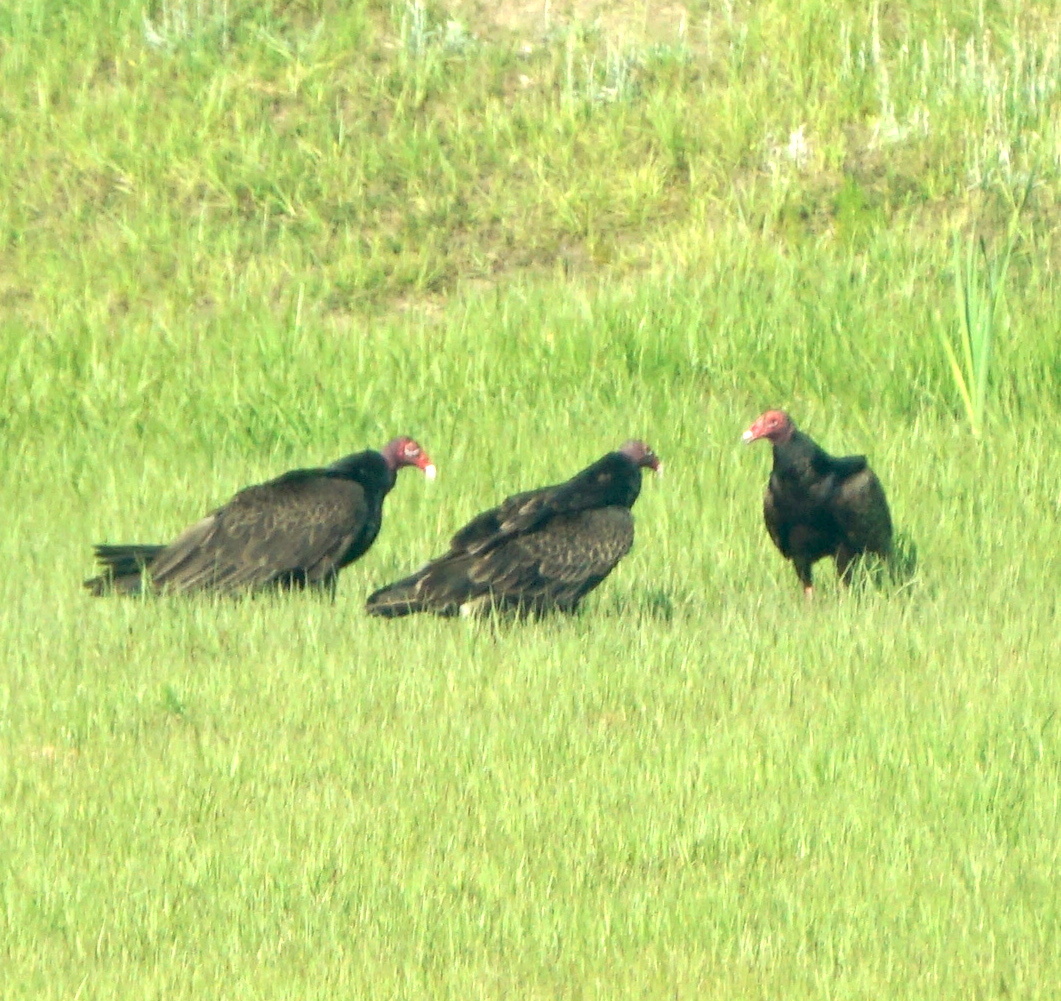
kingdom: Animalia
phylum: Chordata
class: Aves
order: Accipitriformes
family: Cathartidae
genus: Cathartes
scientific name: Cathartes aura
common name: Turkey vulture
